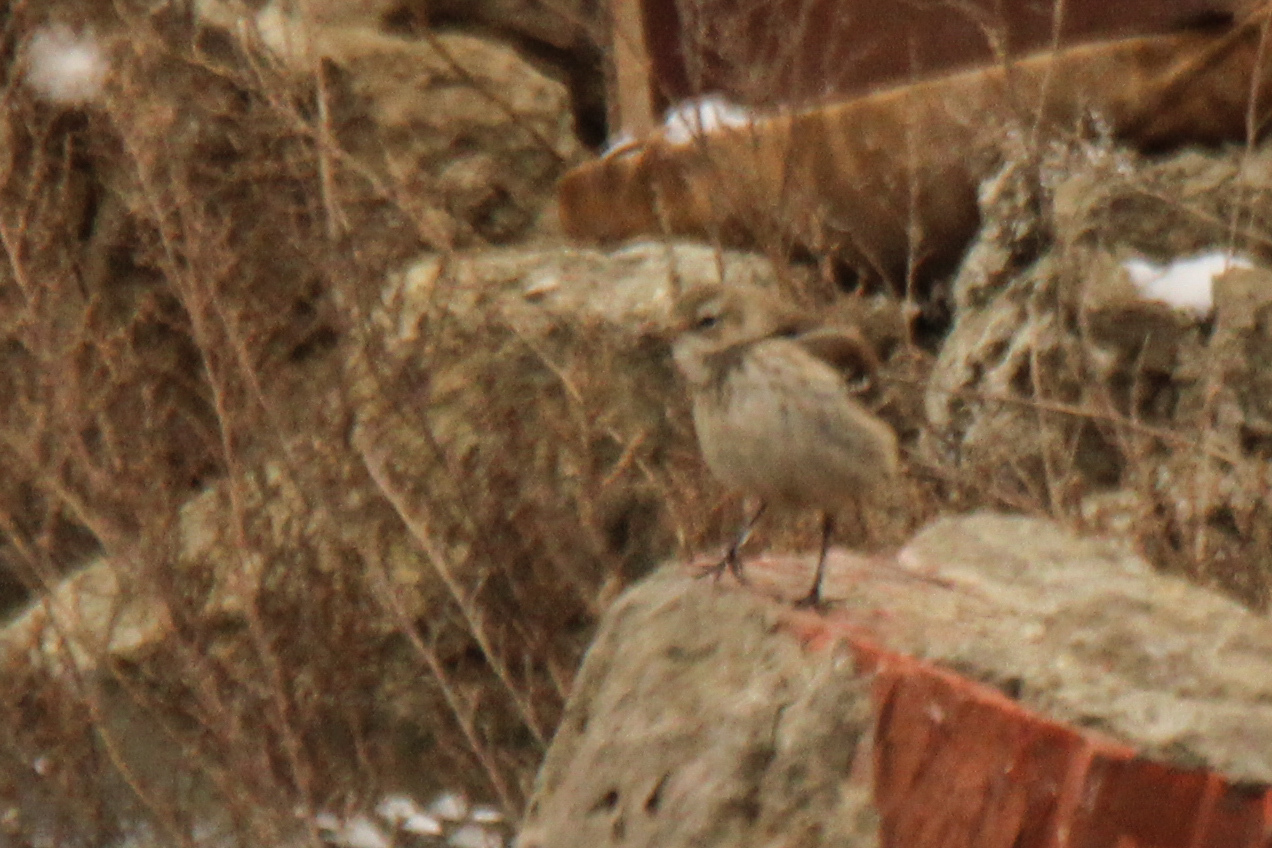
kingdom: Animalia
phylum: Chordata
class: Aves
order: Passeriformes
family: Motacillidae
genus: Anthus
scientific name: Anthus spinoletta
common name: Water pipit
